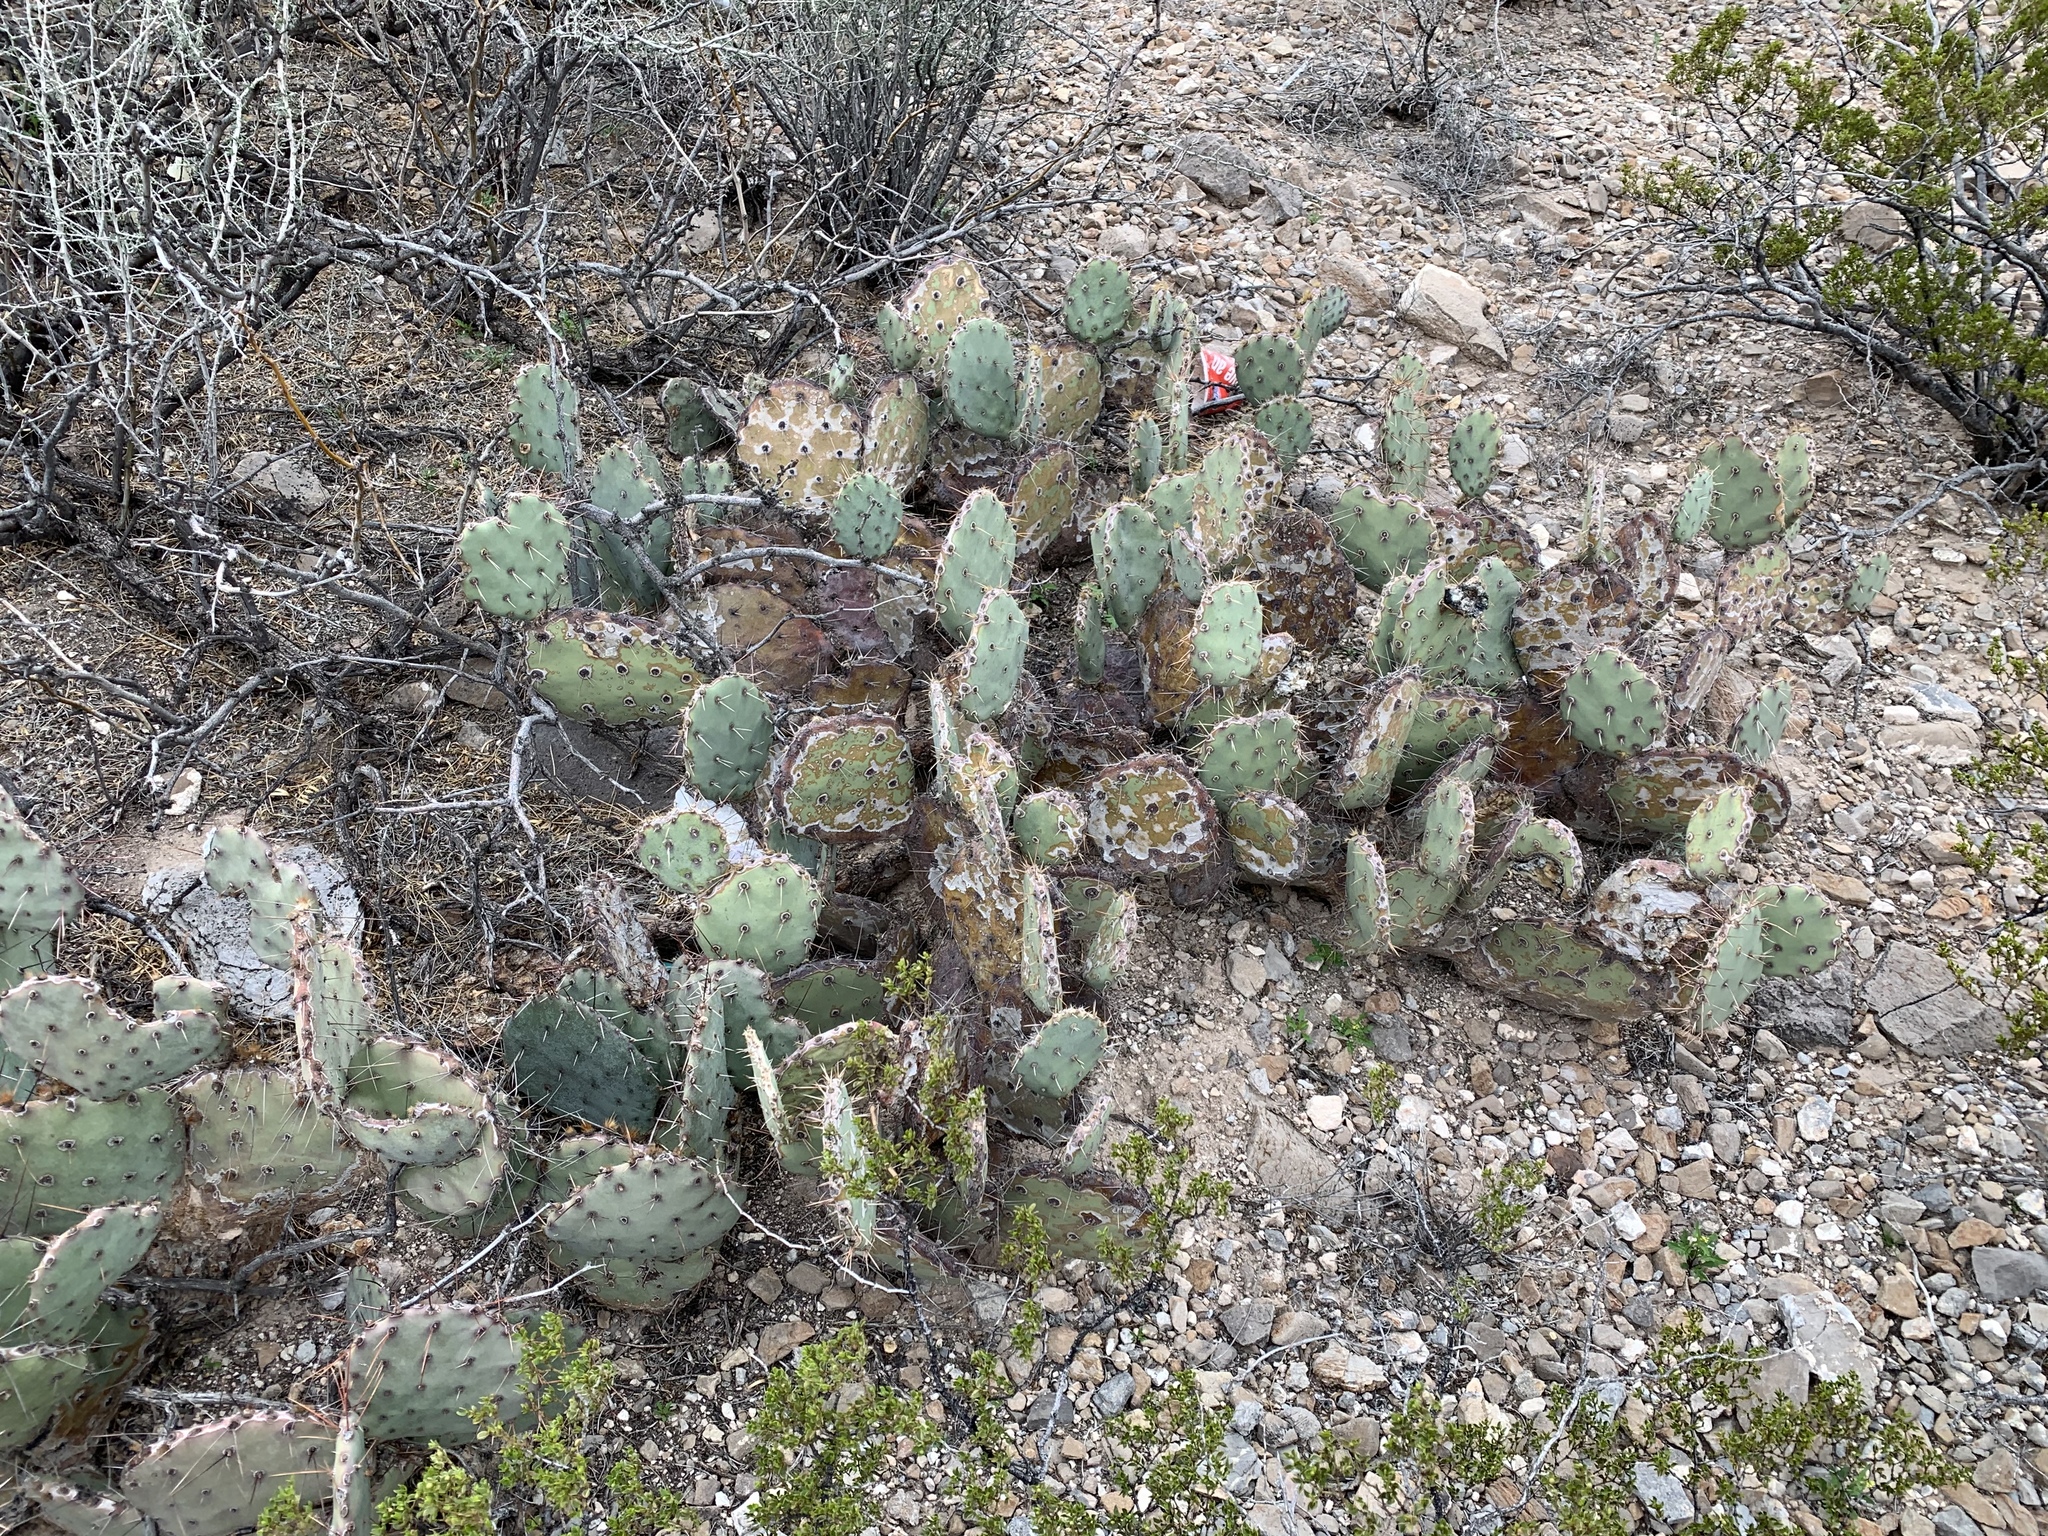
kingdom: Plantae
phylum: Tracheophyta
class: Magnoliopsida
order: Caryophyllales
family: Cactaceae
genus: Opuntia
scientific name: Opuntia phaeacantha
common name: New mexico prickly-pear
